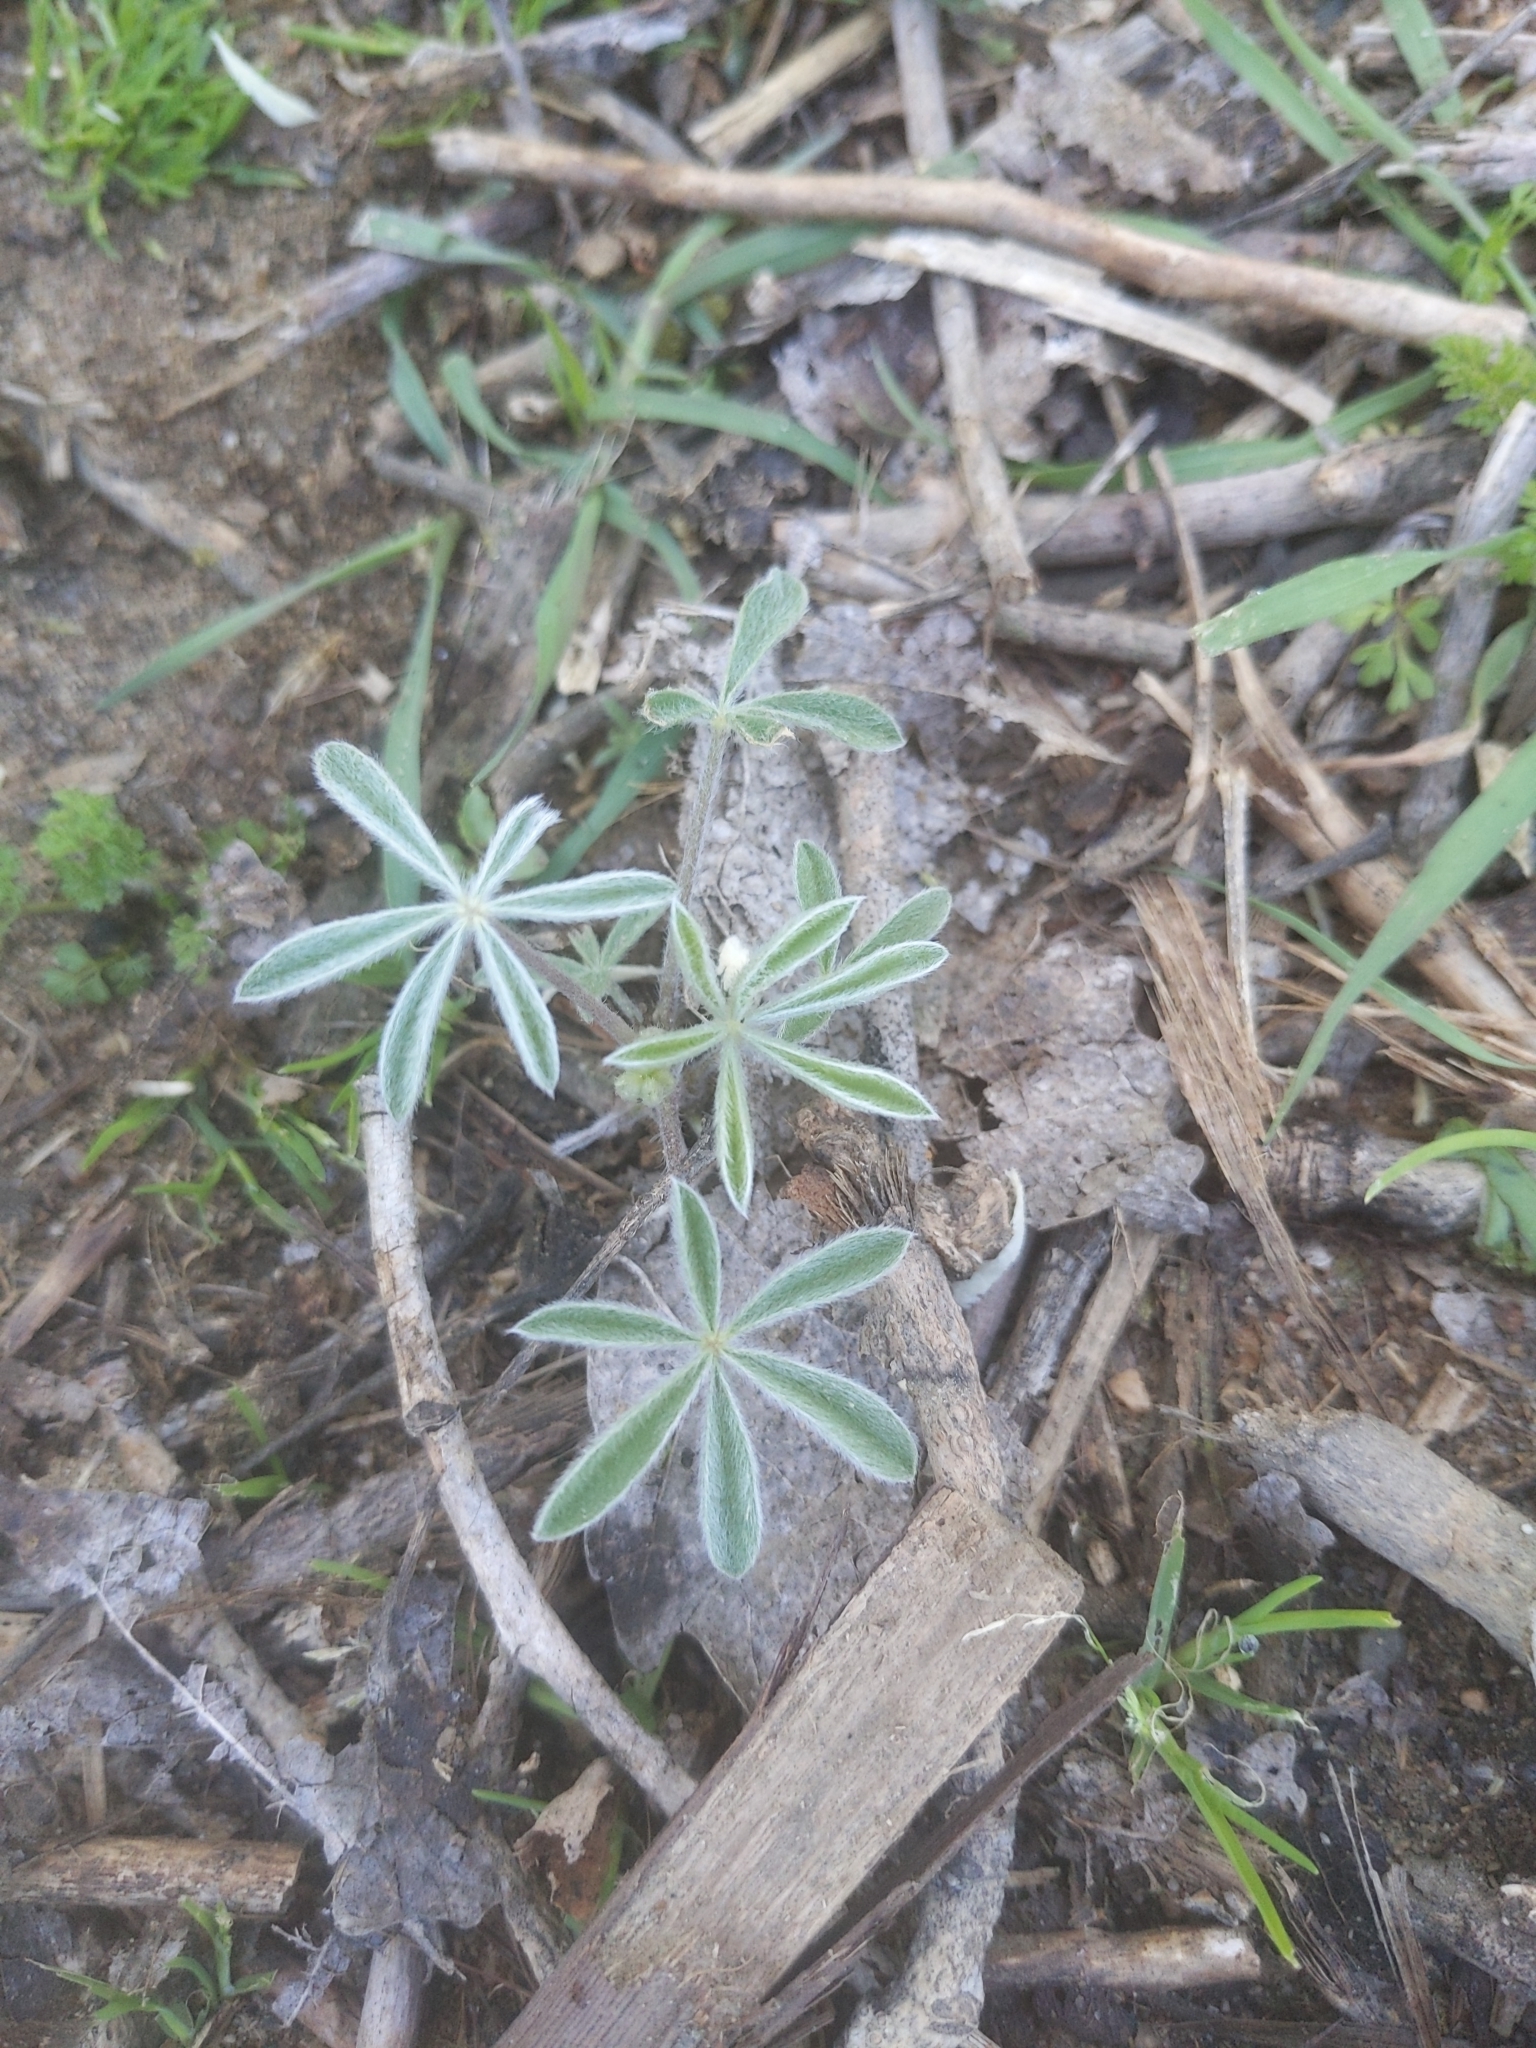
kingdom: Plantae
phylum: Tracheophyta
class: Magnoliopsida
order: Fabales
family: Fabaceae
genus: Lupinus
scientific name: Lupinus albifrons
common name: Foothill lupine
